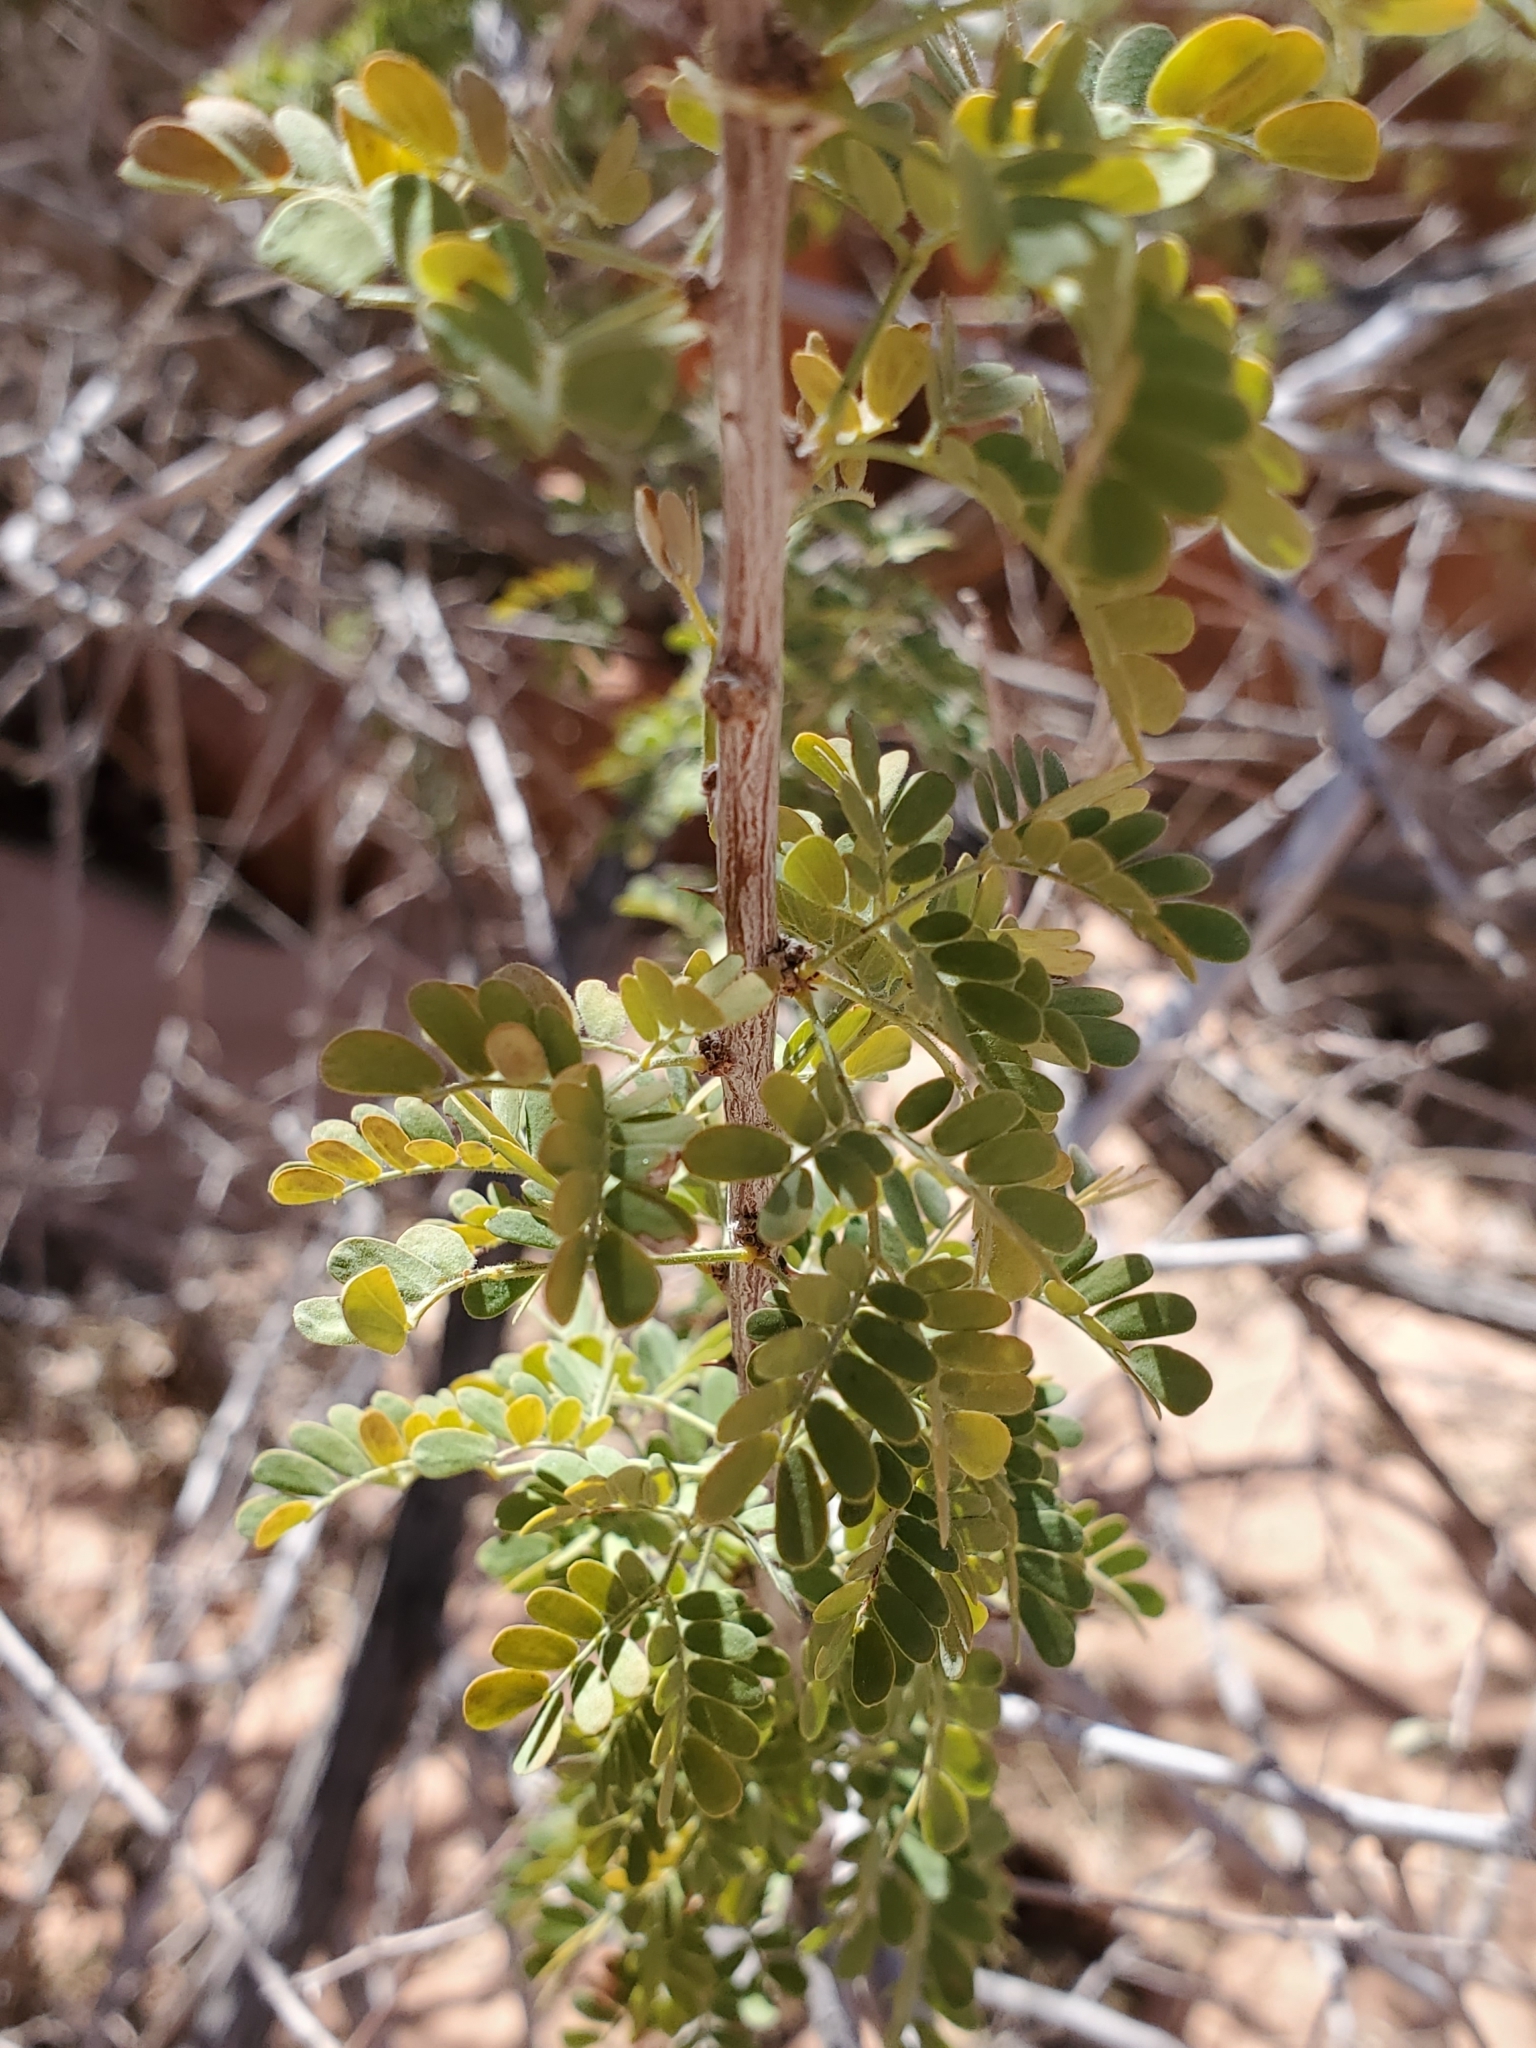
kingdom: Plantae
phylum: Tracheophyta
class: Magnoliopsida
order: Fabales
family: Fabaceae
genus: Senegalia
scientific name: Senegalia greggii
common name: Texas-mimosa
